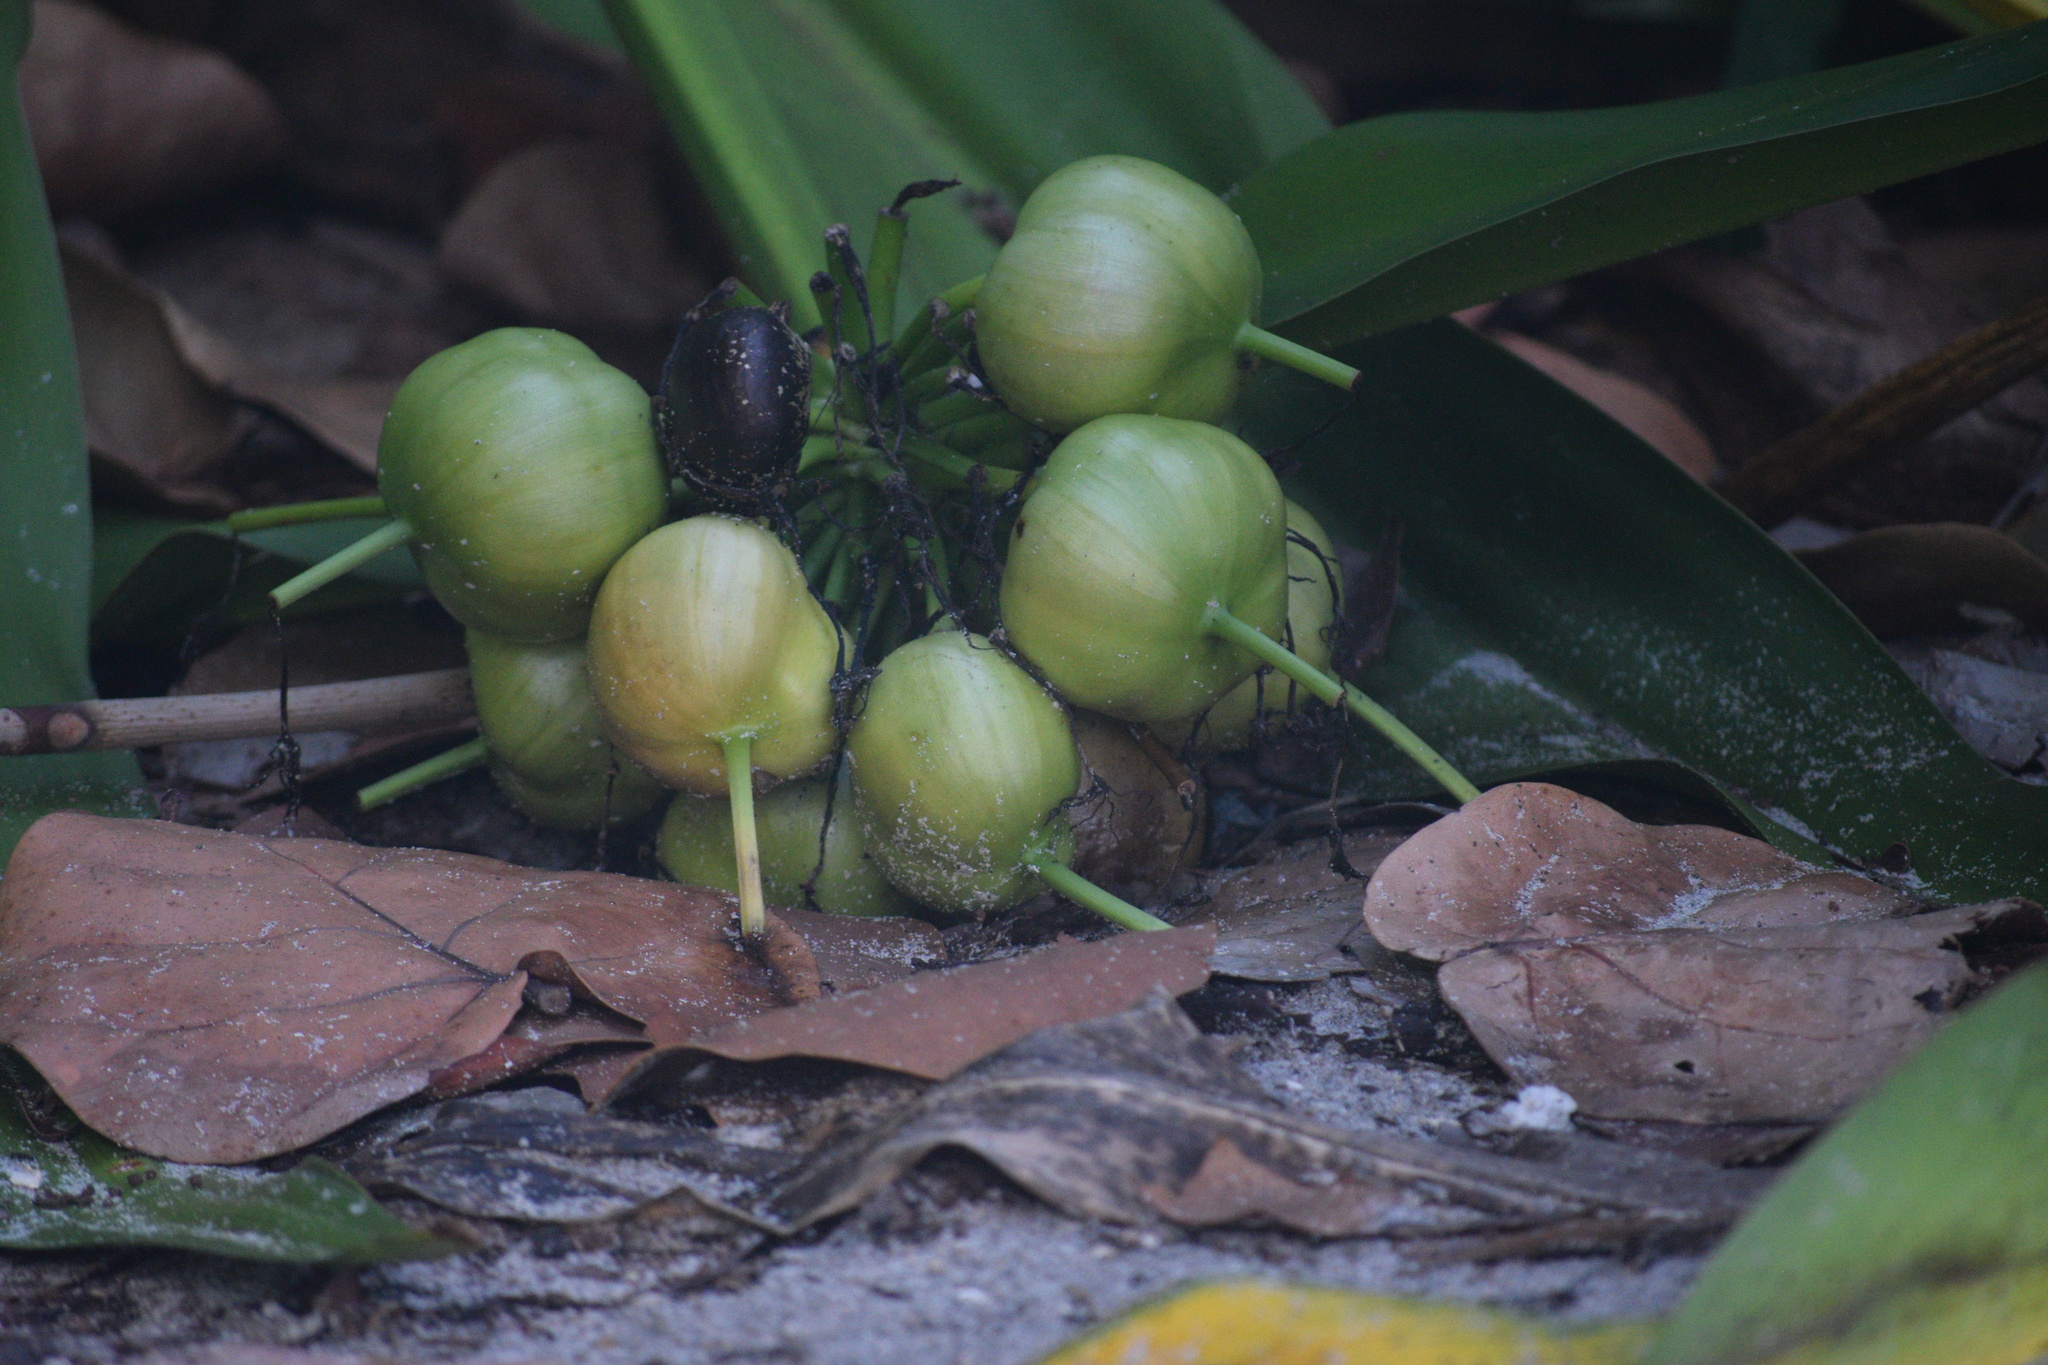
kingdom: Plantae
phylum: Tracheophyta
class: Liliopsida
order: Asparagales
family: Amaryllidaceae
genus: Crinum
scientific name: Crinum asiaticum
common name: Poisonbulb
